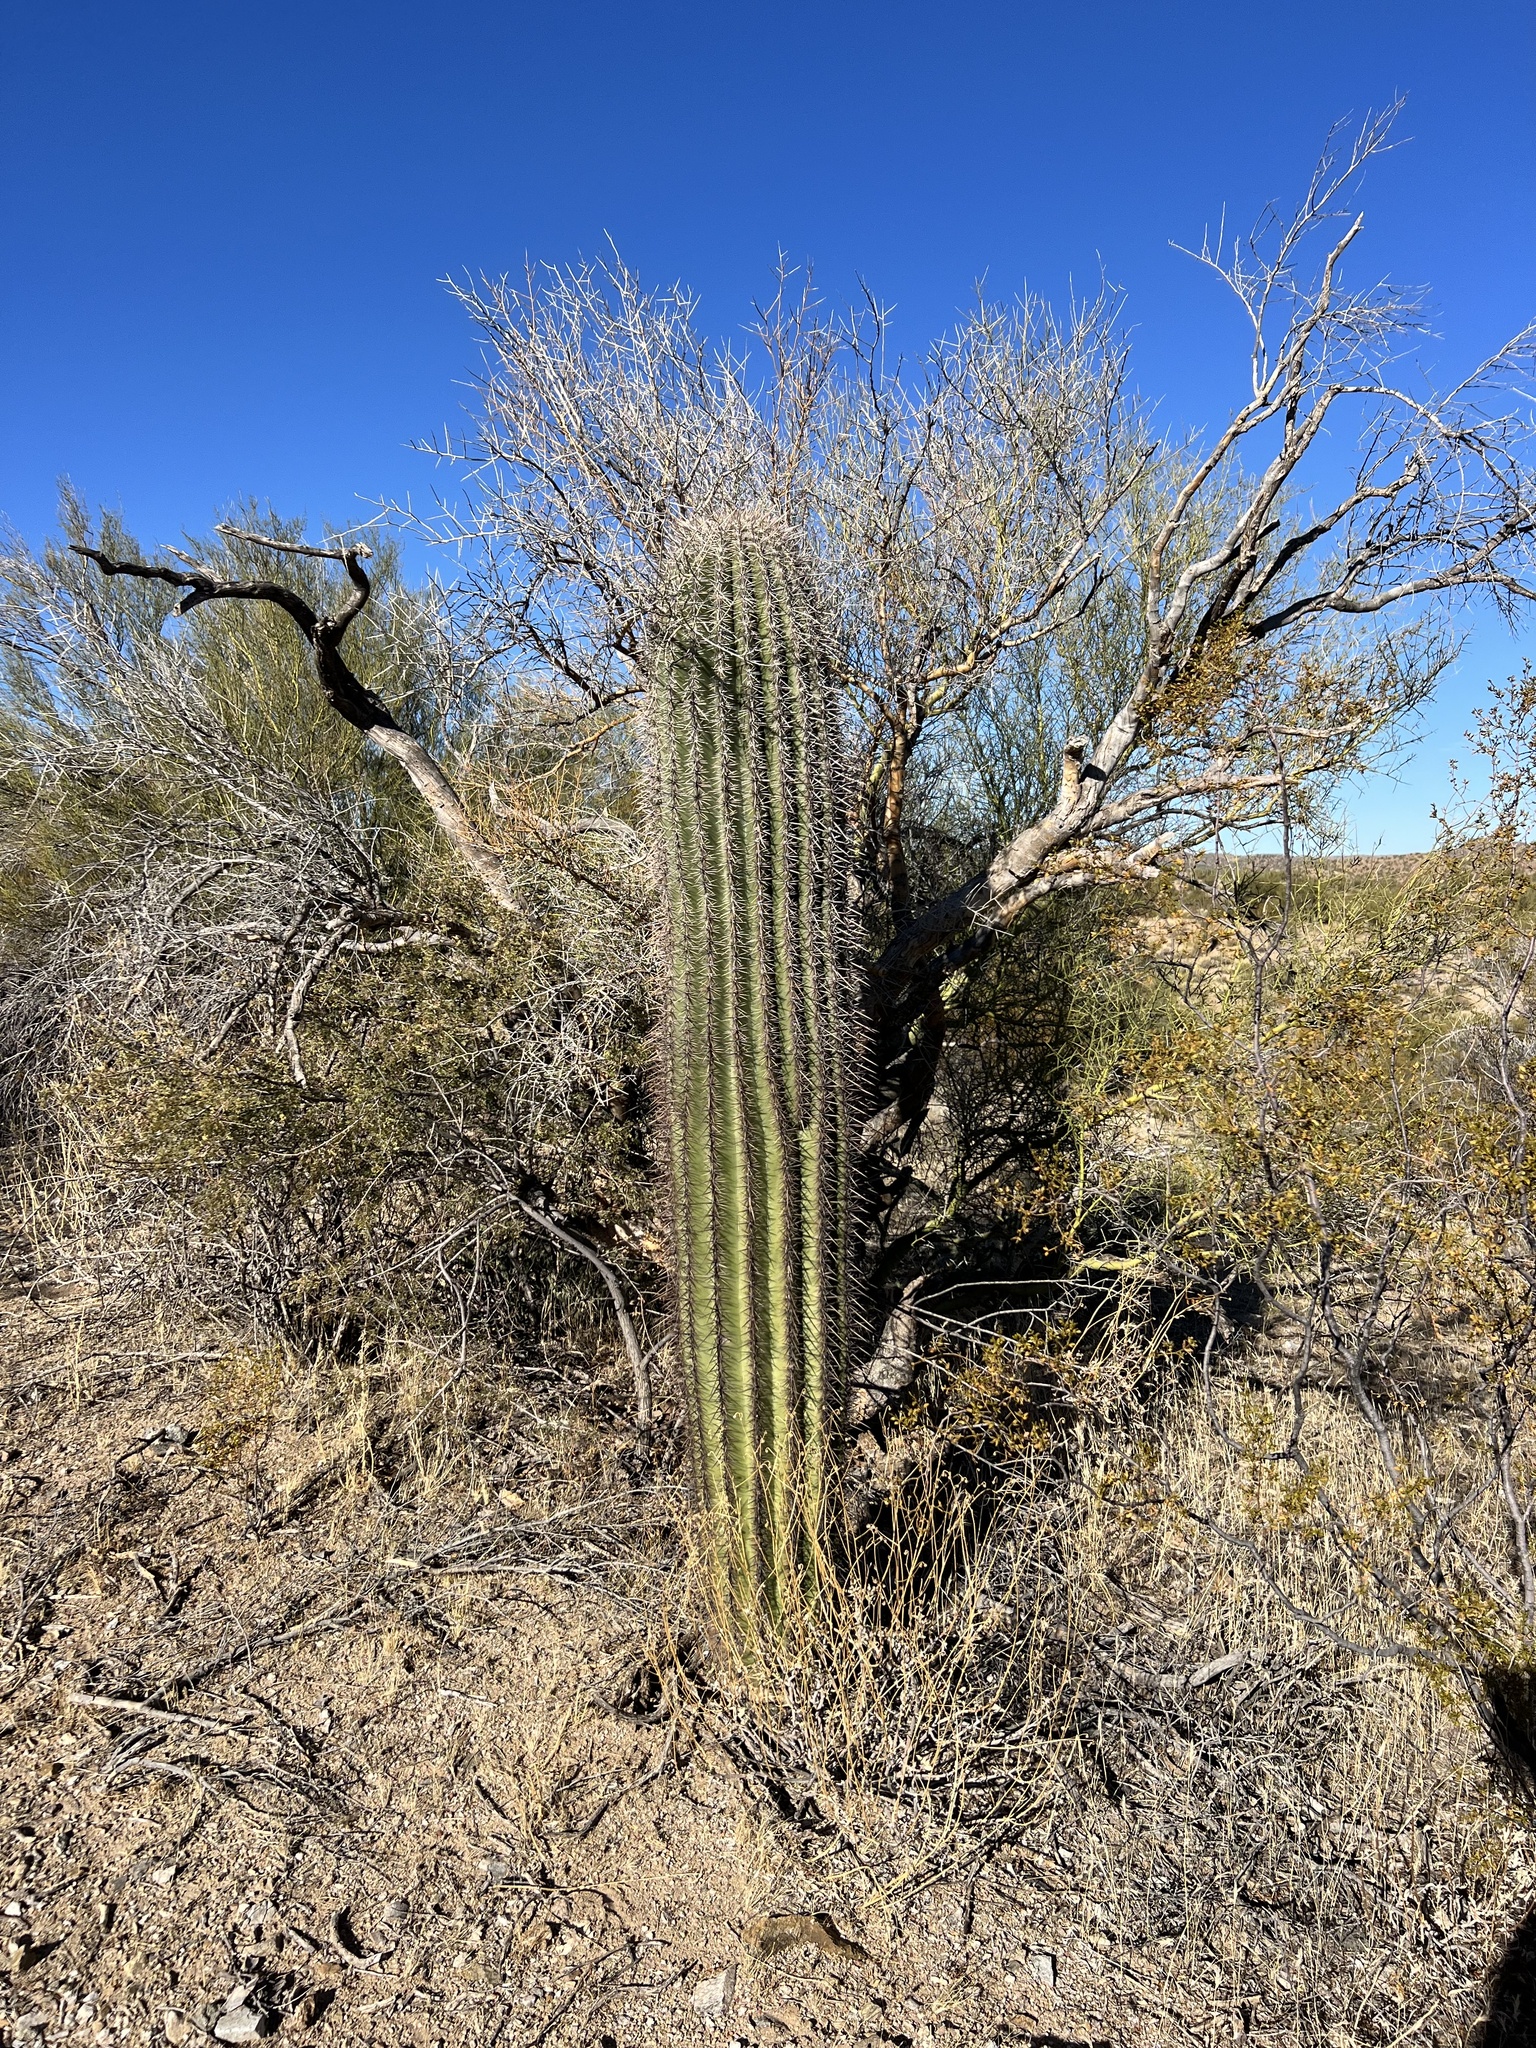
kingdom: Plantae
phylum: Tracheophyta
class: Magnoliopsida
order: Caryophyllales
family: Cactaceae
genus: Carnegiea
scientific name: Carnegiea gigantea
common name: Saguaro
